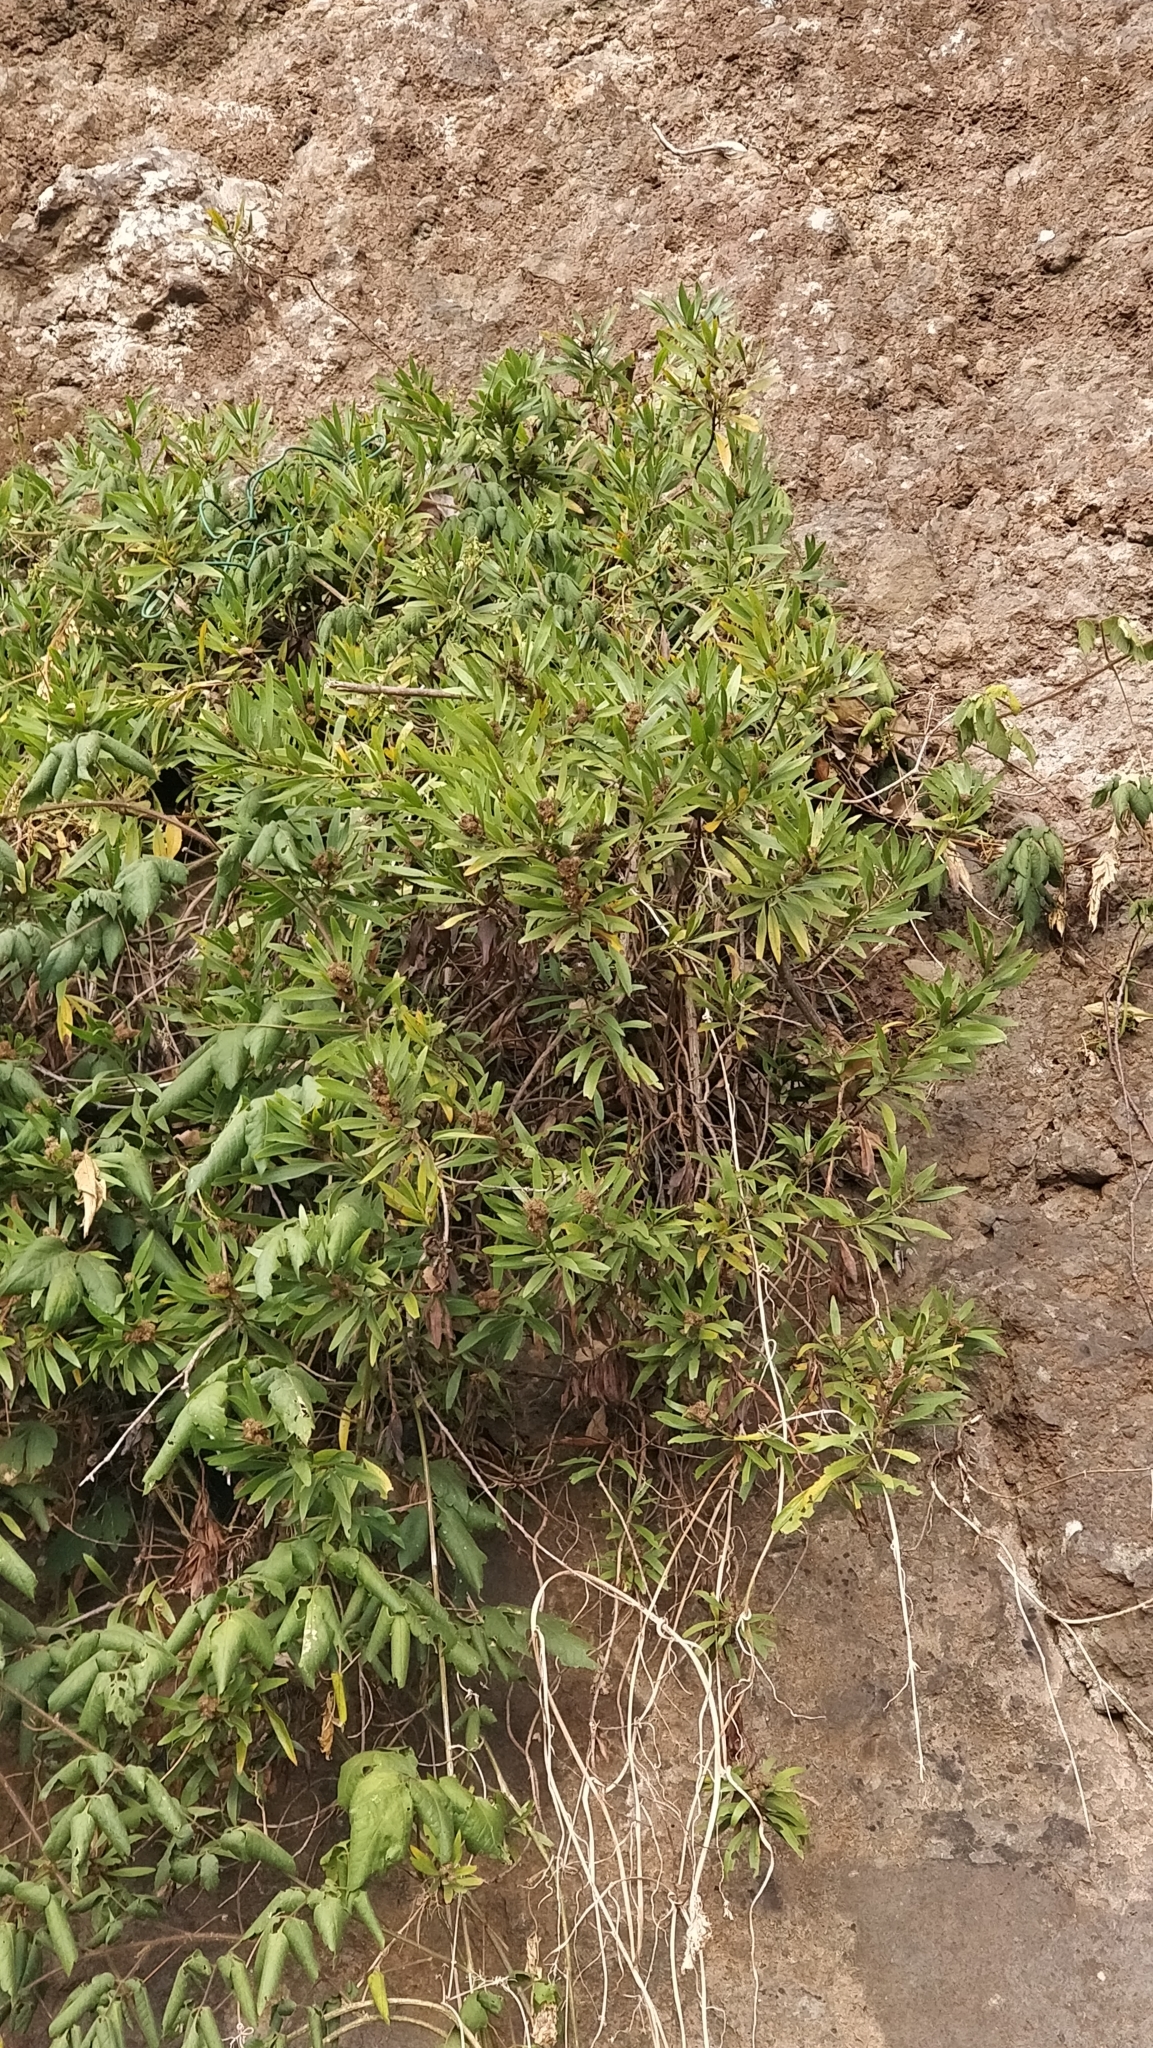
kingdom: Plantae
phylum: Tracheophyta
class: Magnoliopsida
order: Lamiales
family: Plantaginaceae
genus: Globularia
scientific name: Globularia salicina
